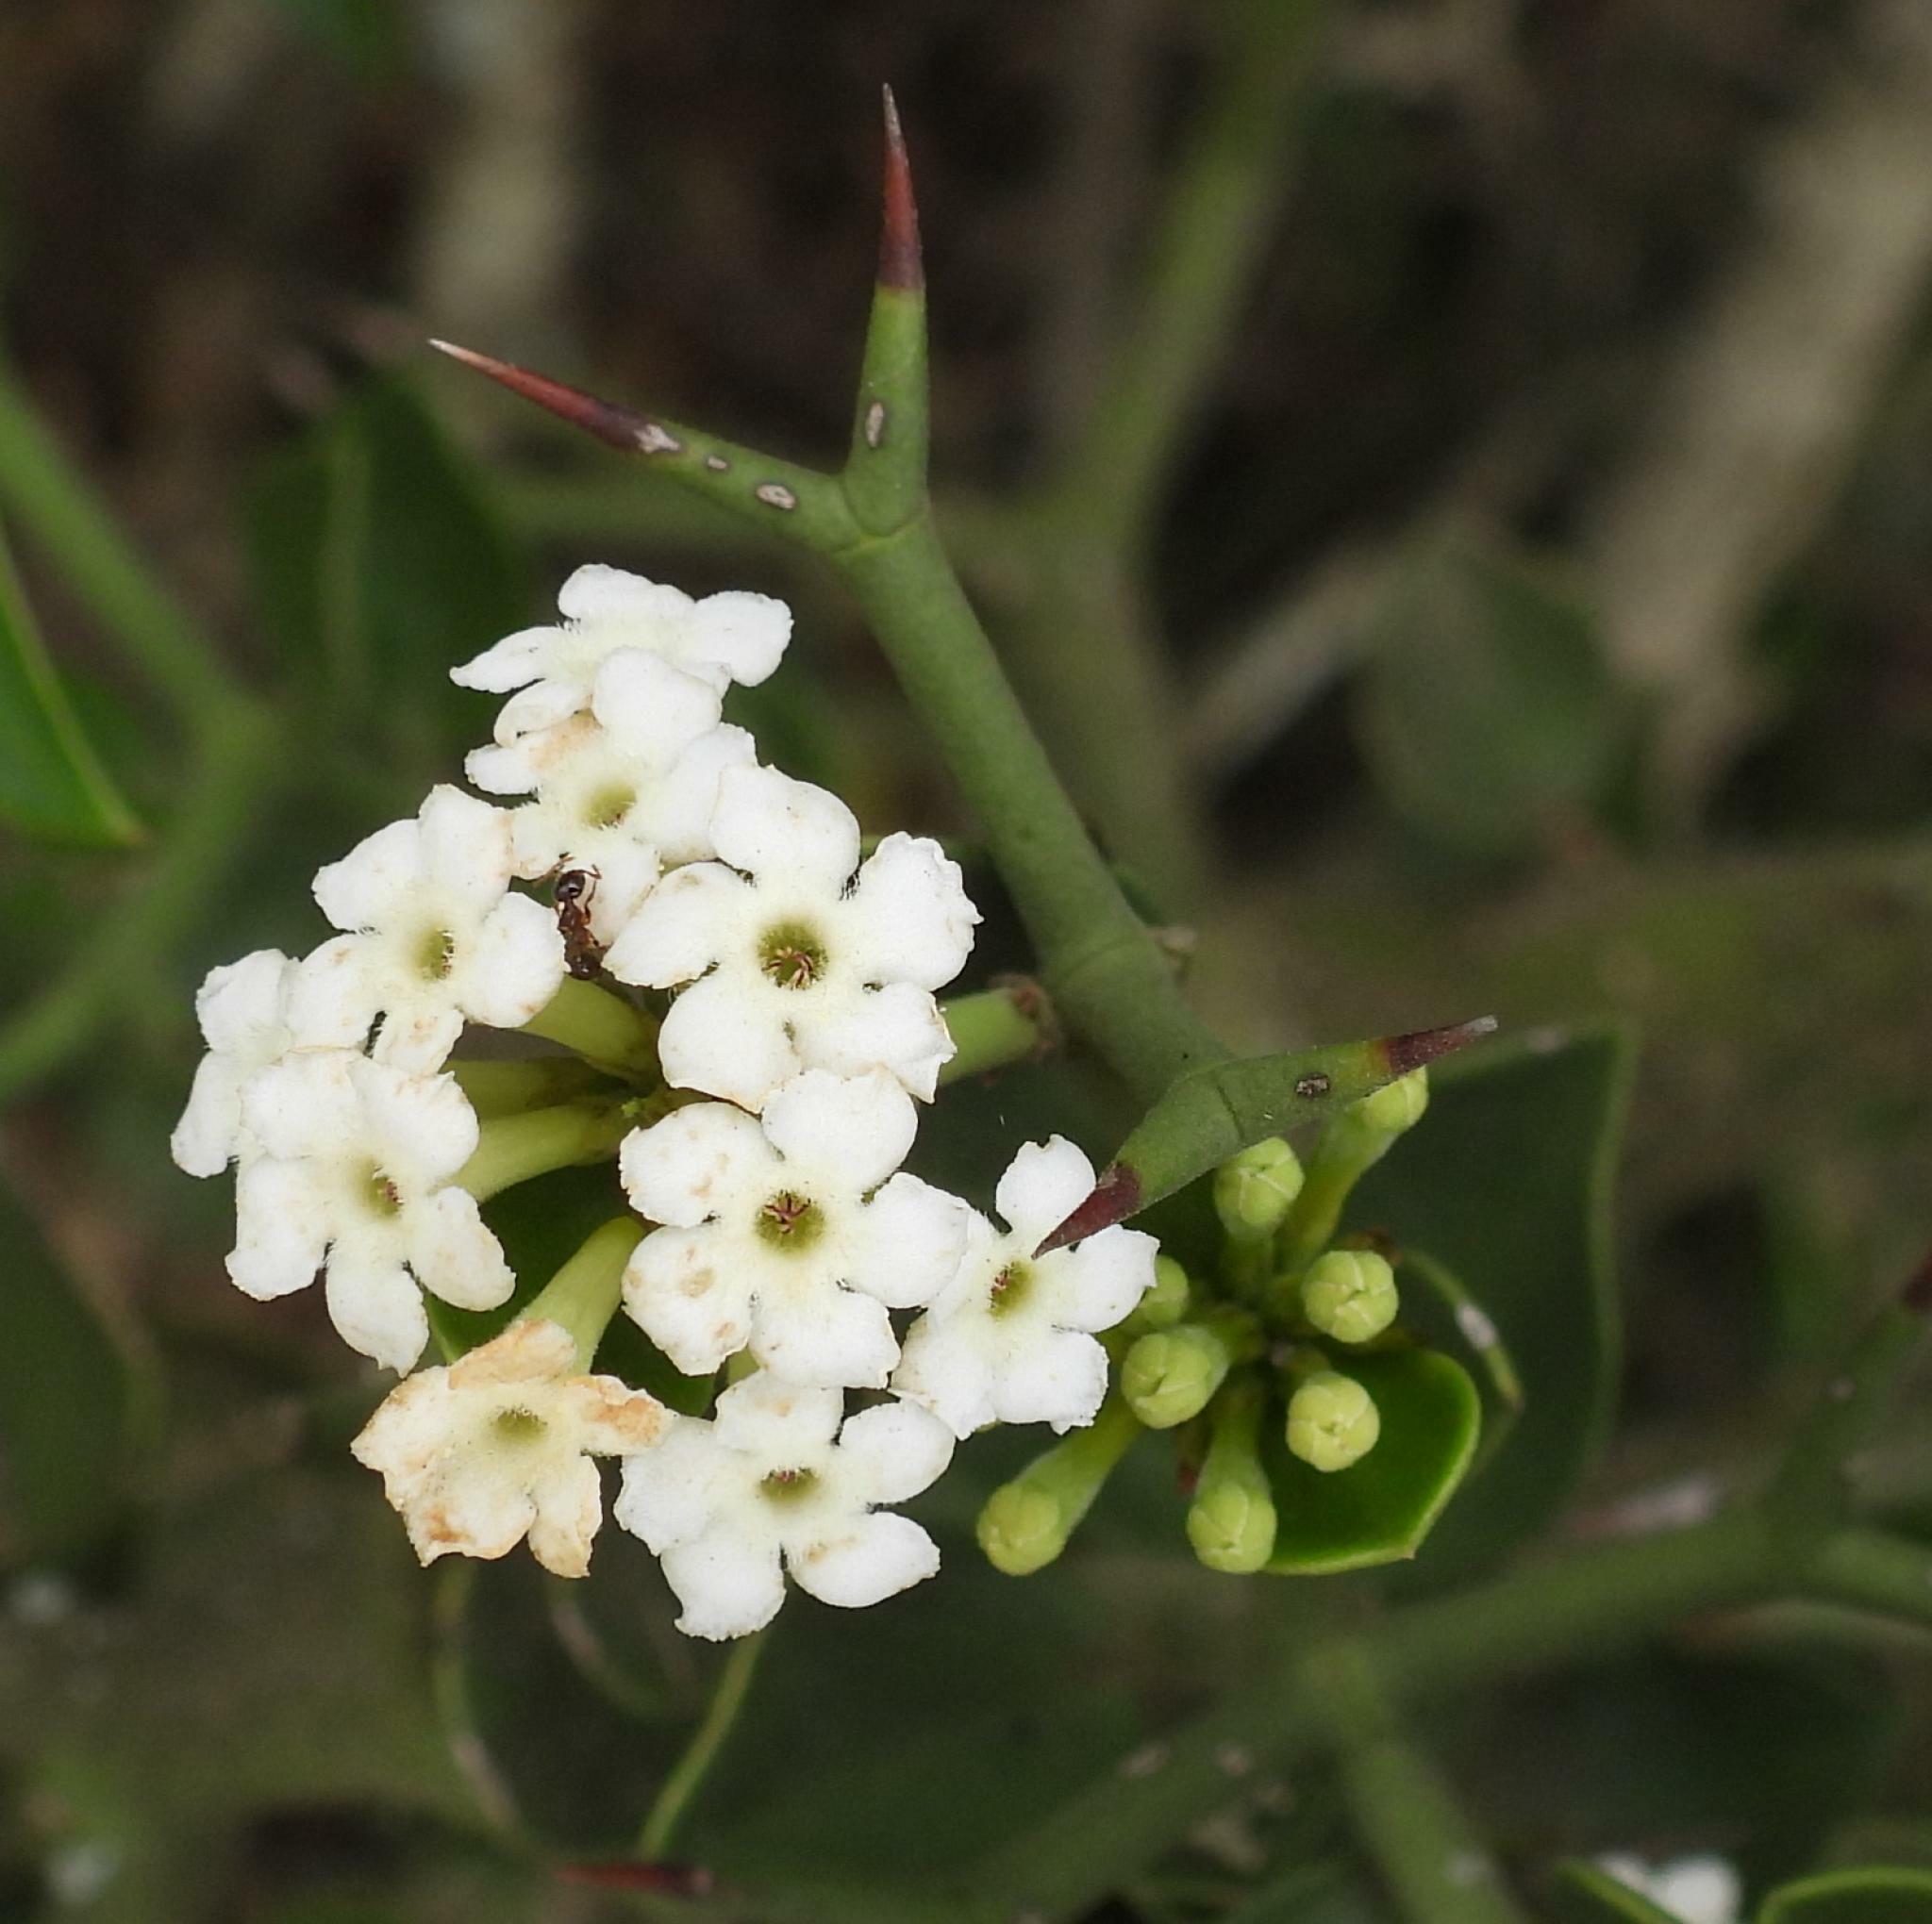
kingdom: Plantae
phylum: Tracheophyta
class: Magnoliopsida
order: Gentianales
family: Apocynaceae
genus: Carissa
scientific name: Carissa haematocarpa
